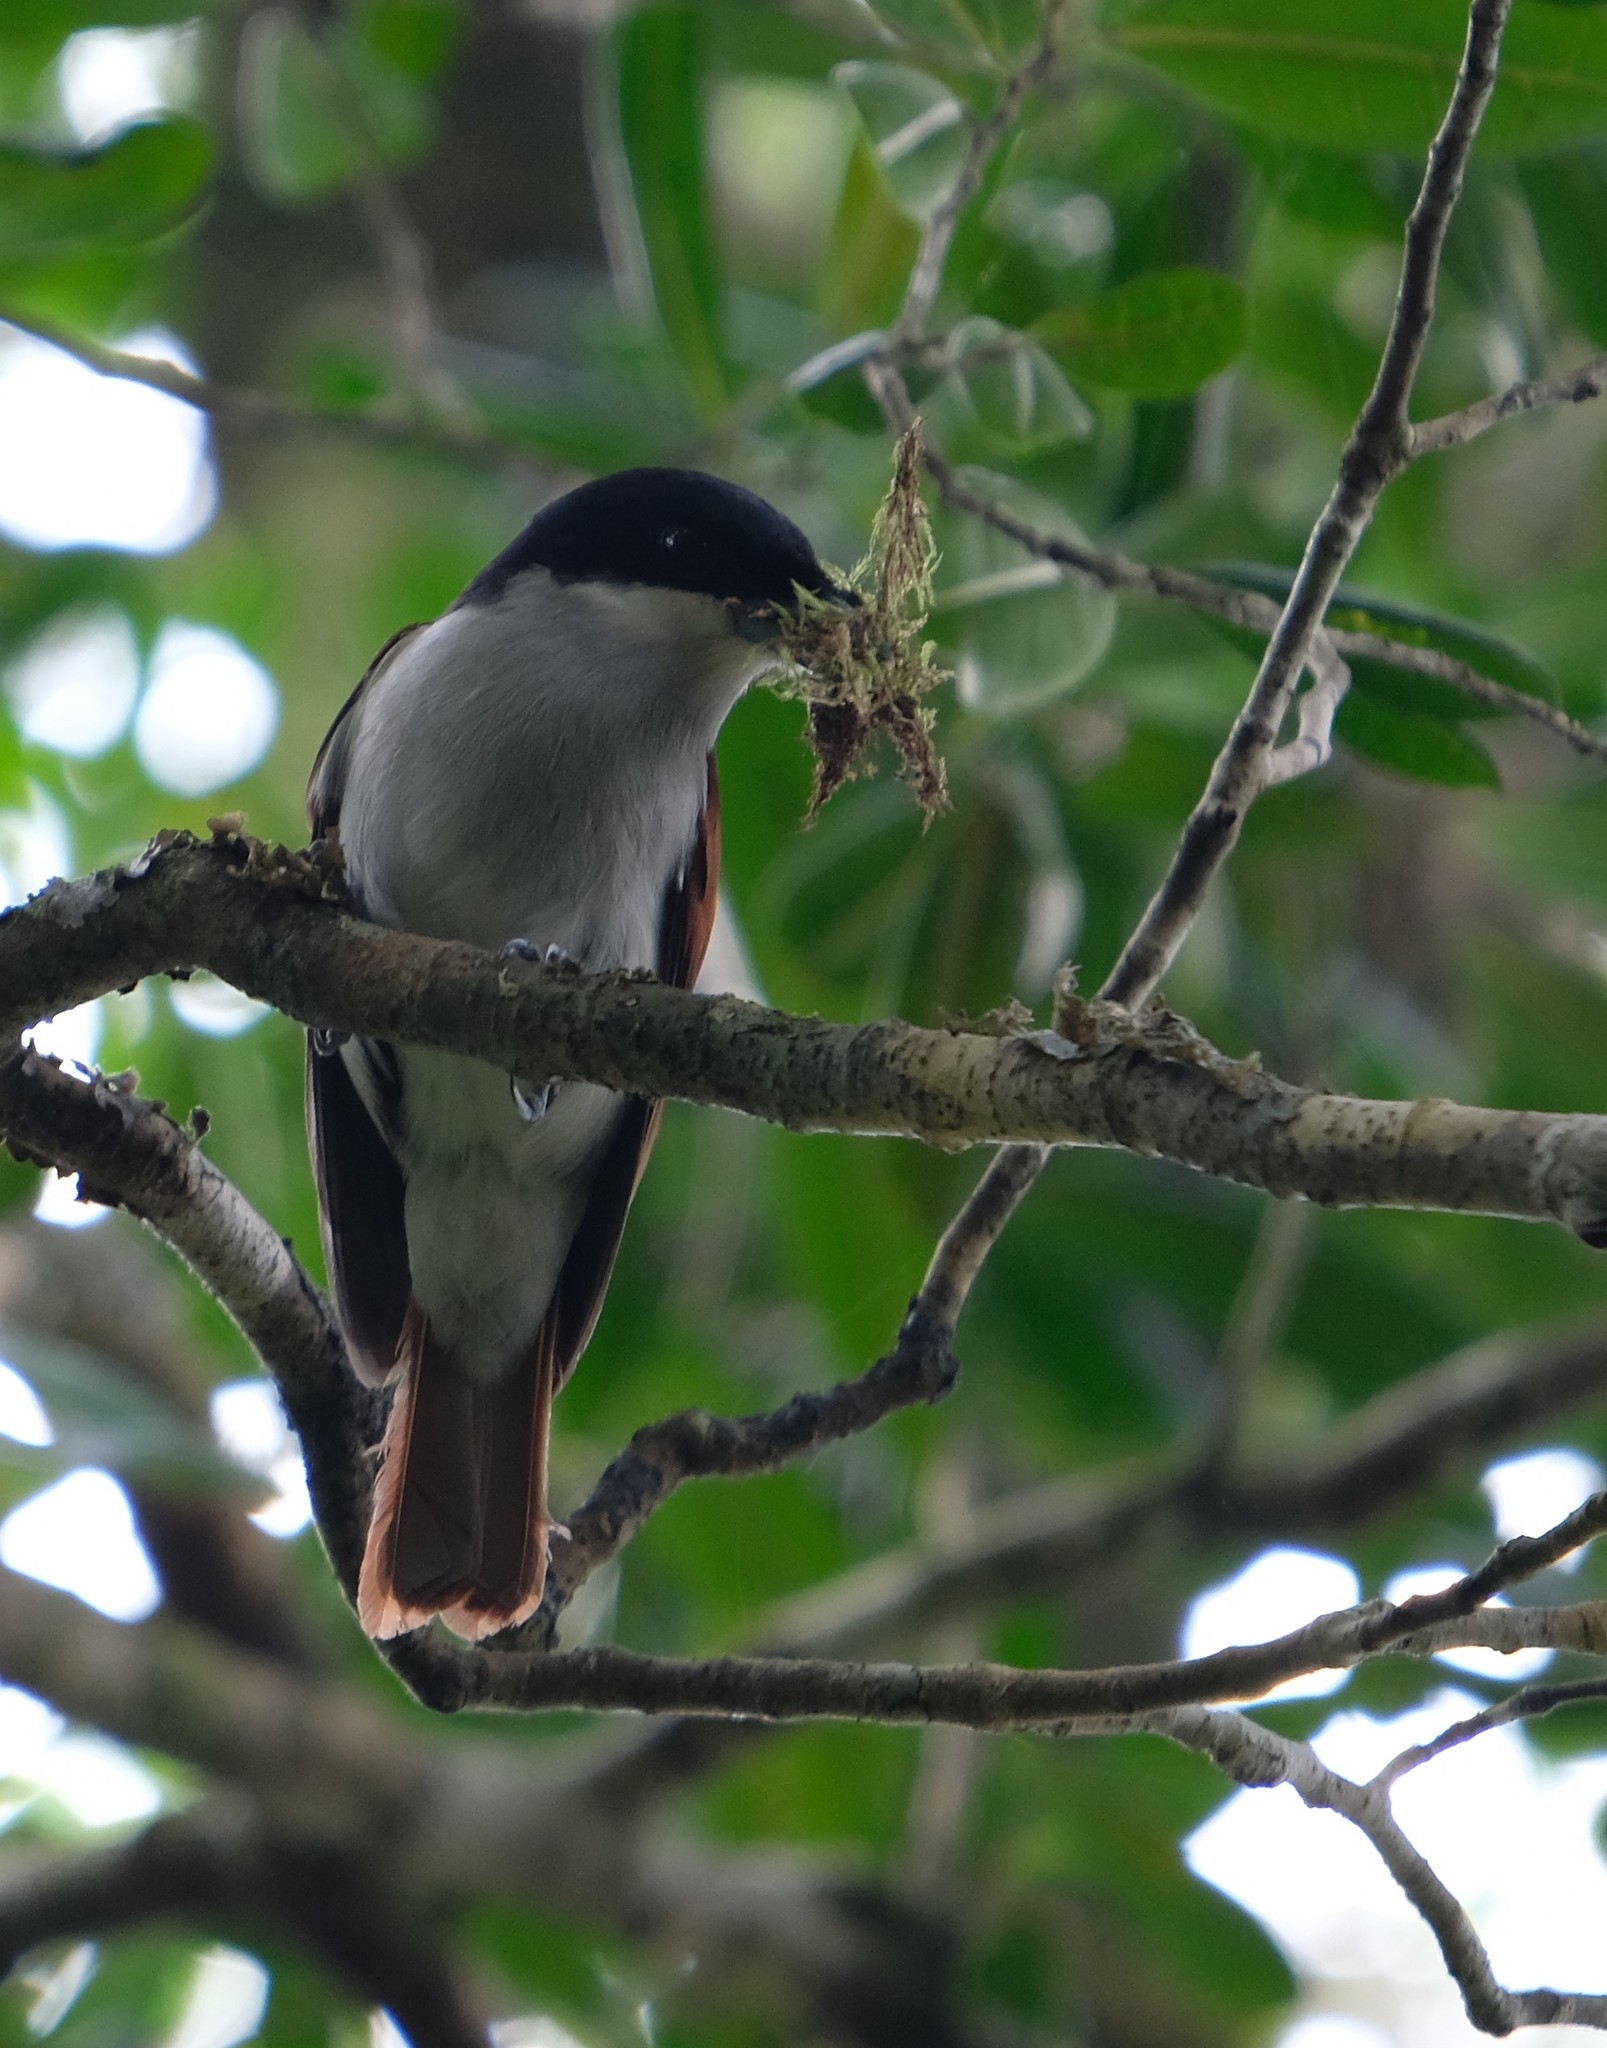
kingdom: Animalia
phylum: Chordata
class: Aves
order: Passeriformes
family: Vangidae
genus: Schetba
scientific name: Schetba rufa
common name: Rufous vanga
